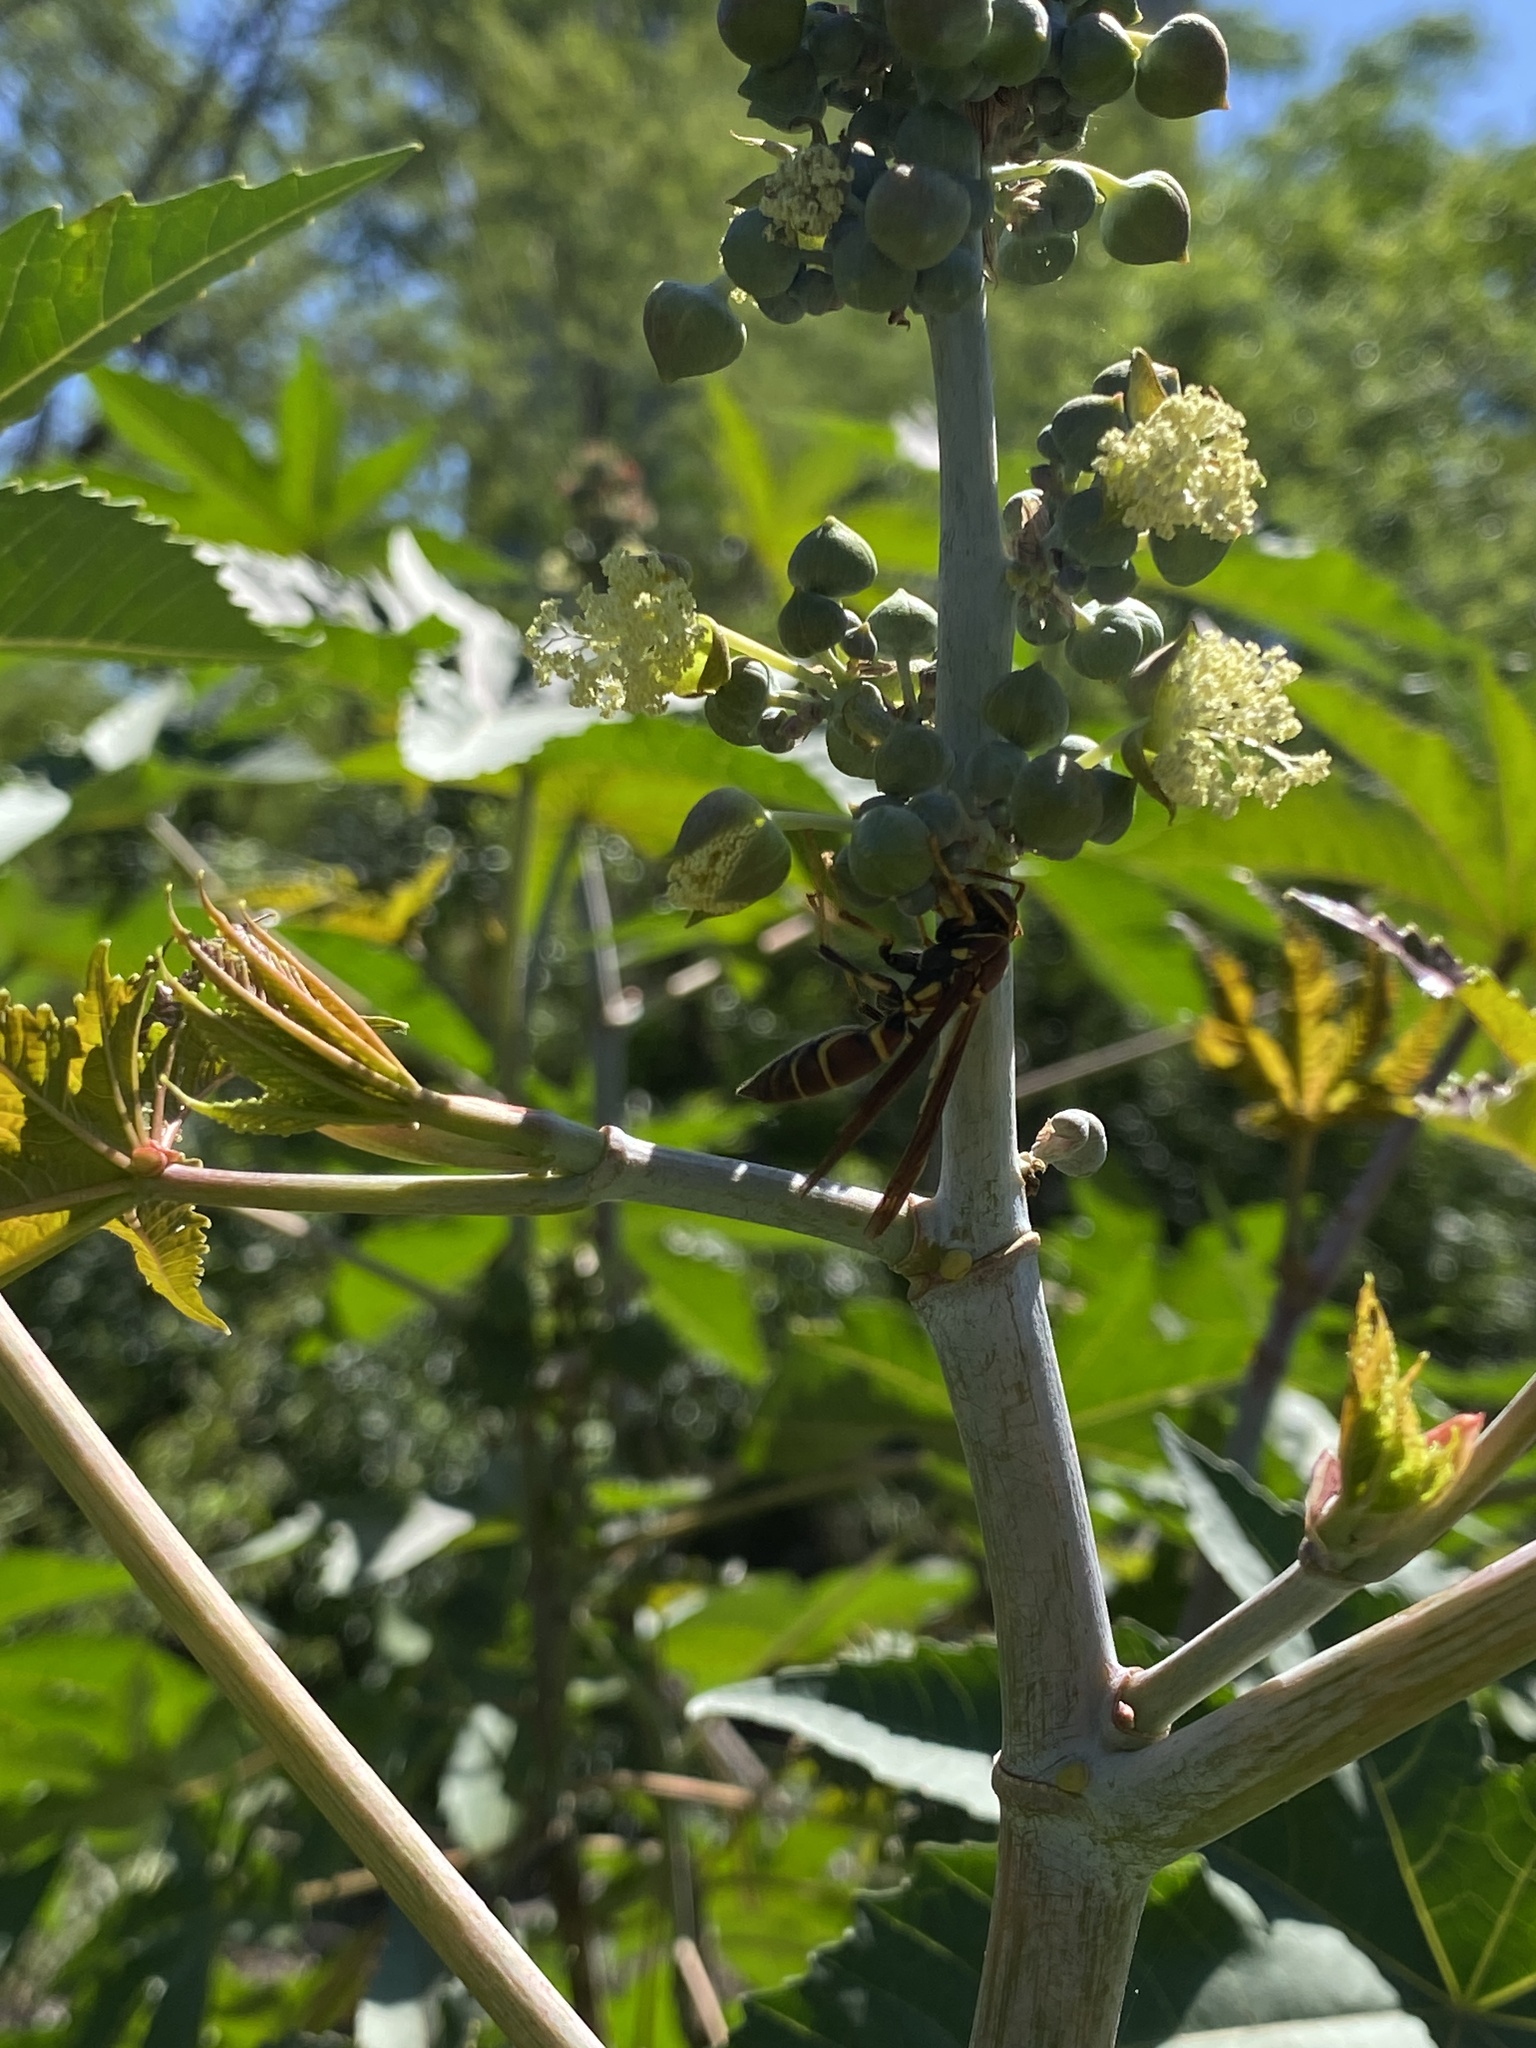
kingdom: Animalia
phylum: Arthropoda
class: Insecta
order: Hymenoptera
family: Eumenidae
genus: Polistes
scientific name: Polistes instabilis
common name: Unstable paper wasp
